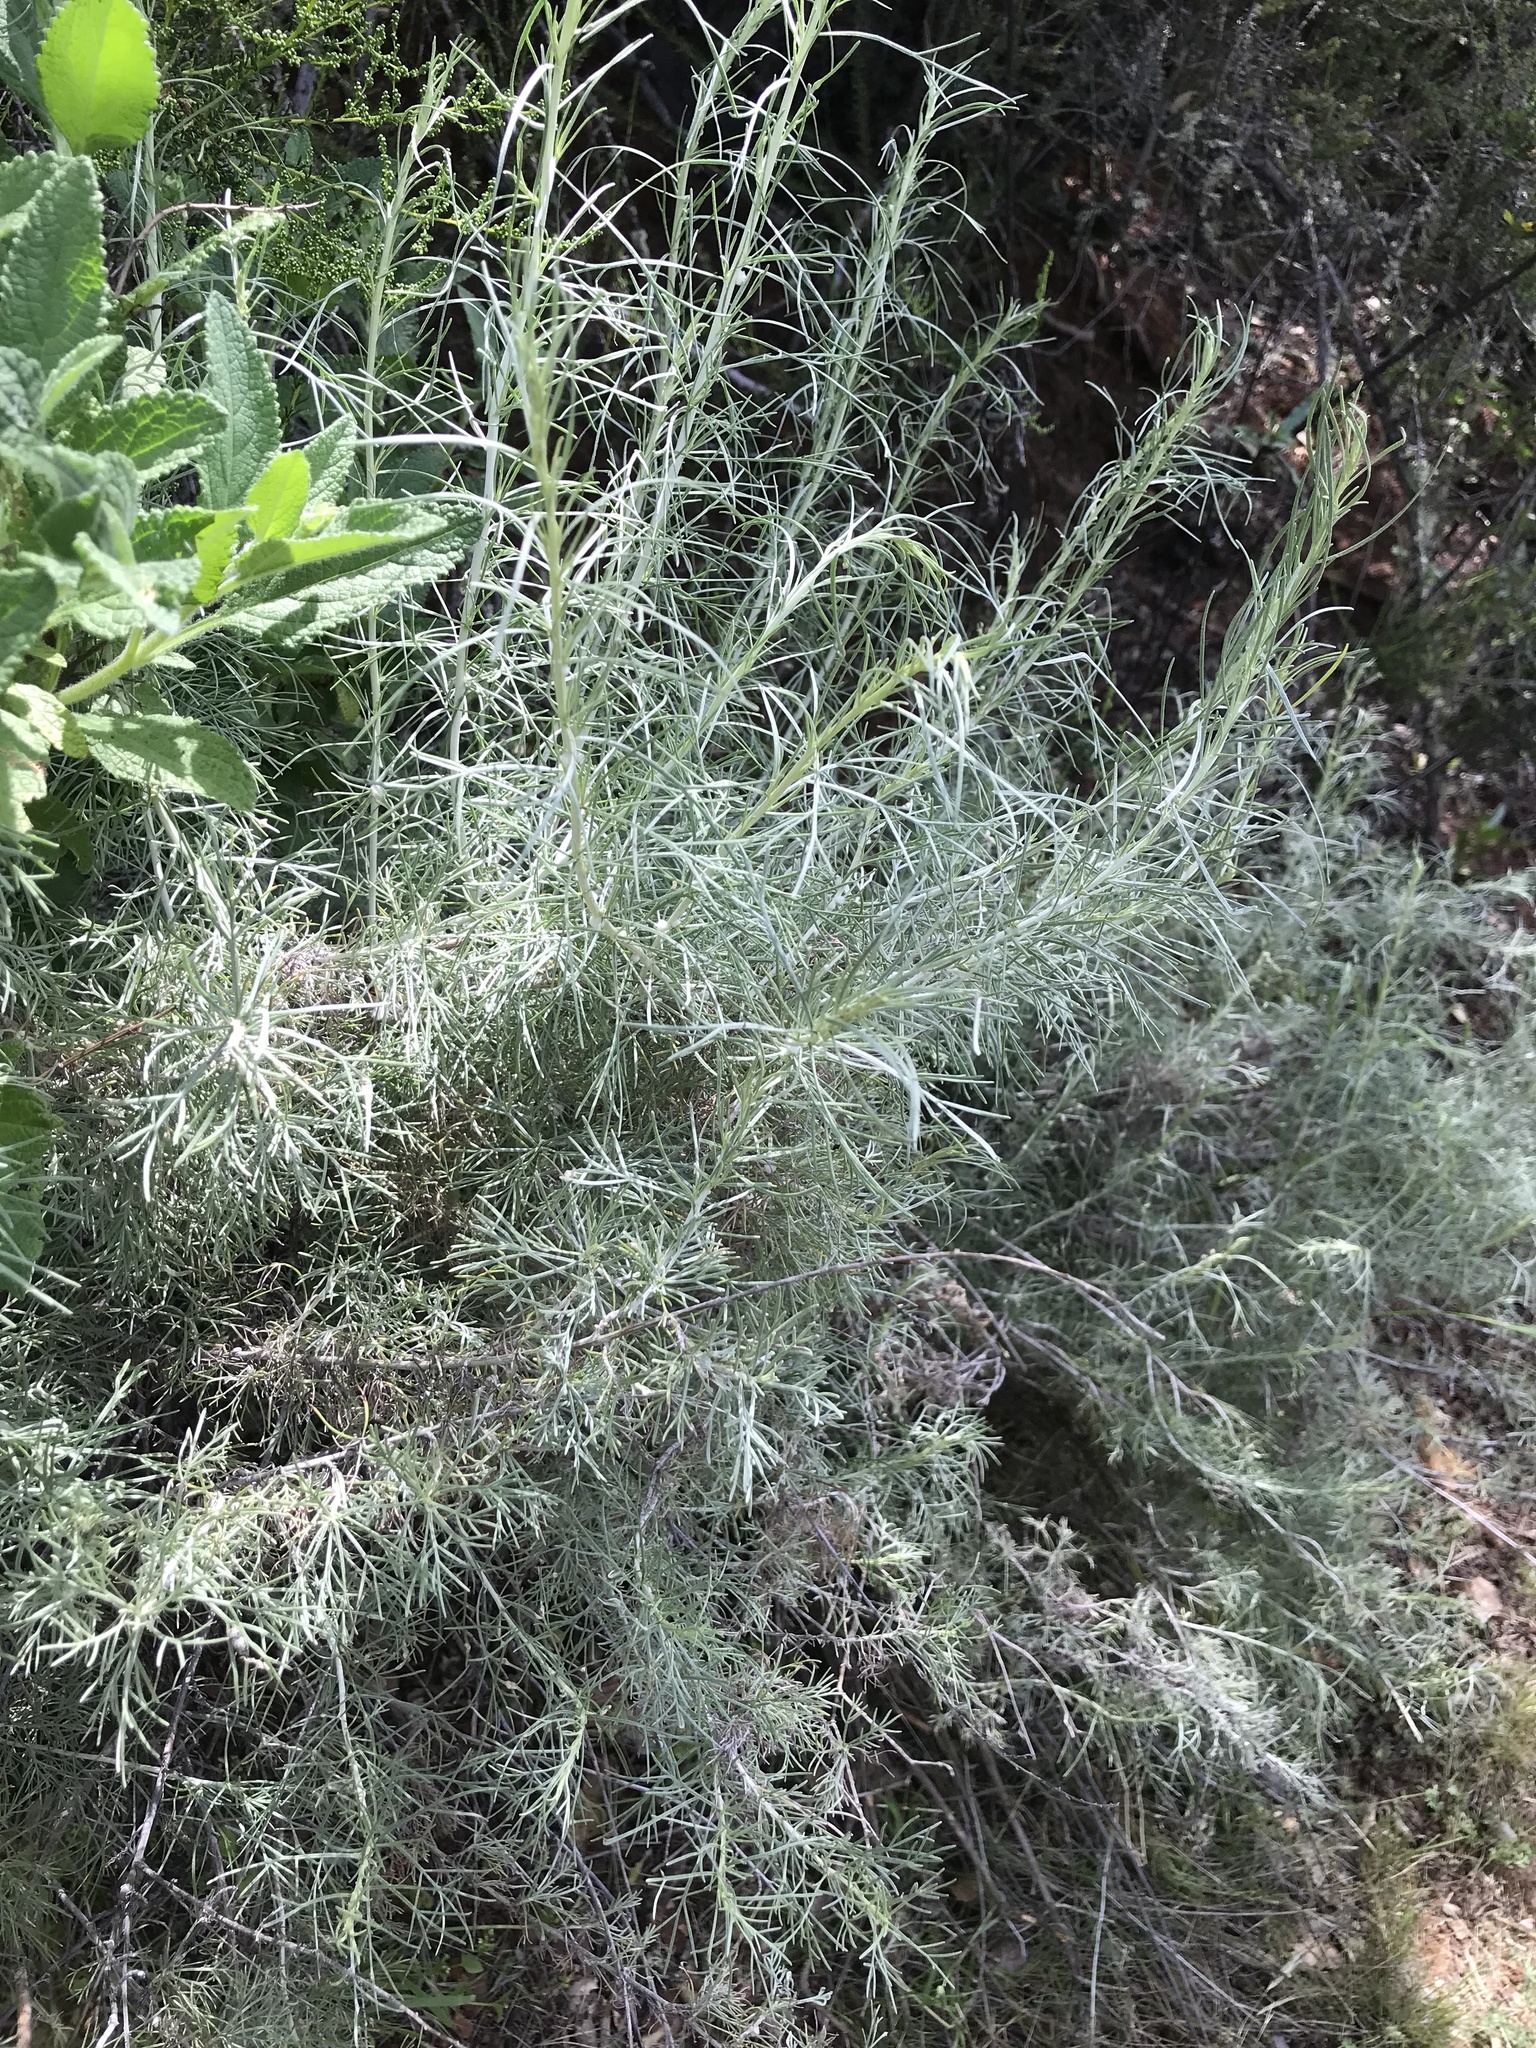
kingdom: Plantae
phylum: Tracheophyta
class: Magnoliopsida
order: Asterales
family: Asteraceae
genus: Artemisia
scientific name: Artemisia californica
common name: California sagebrush
